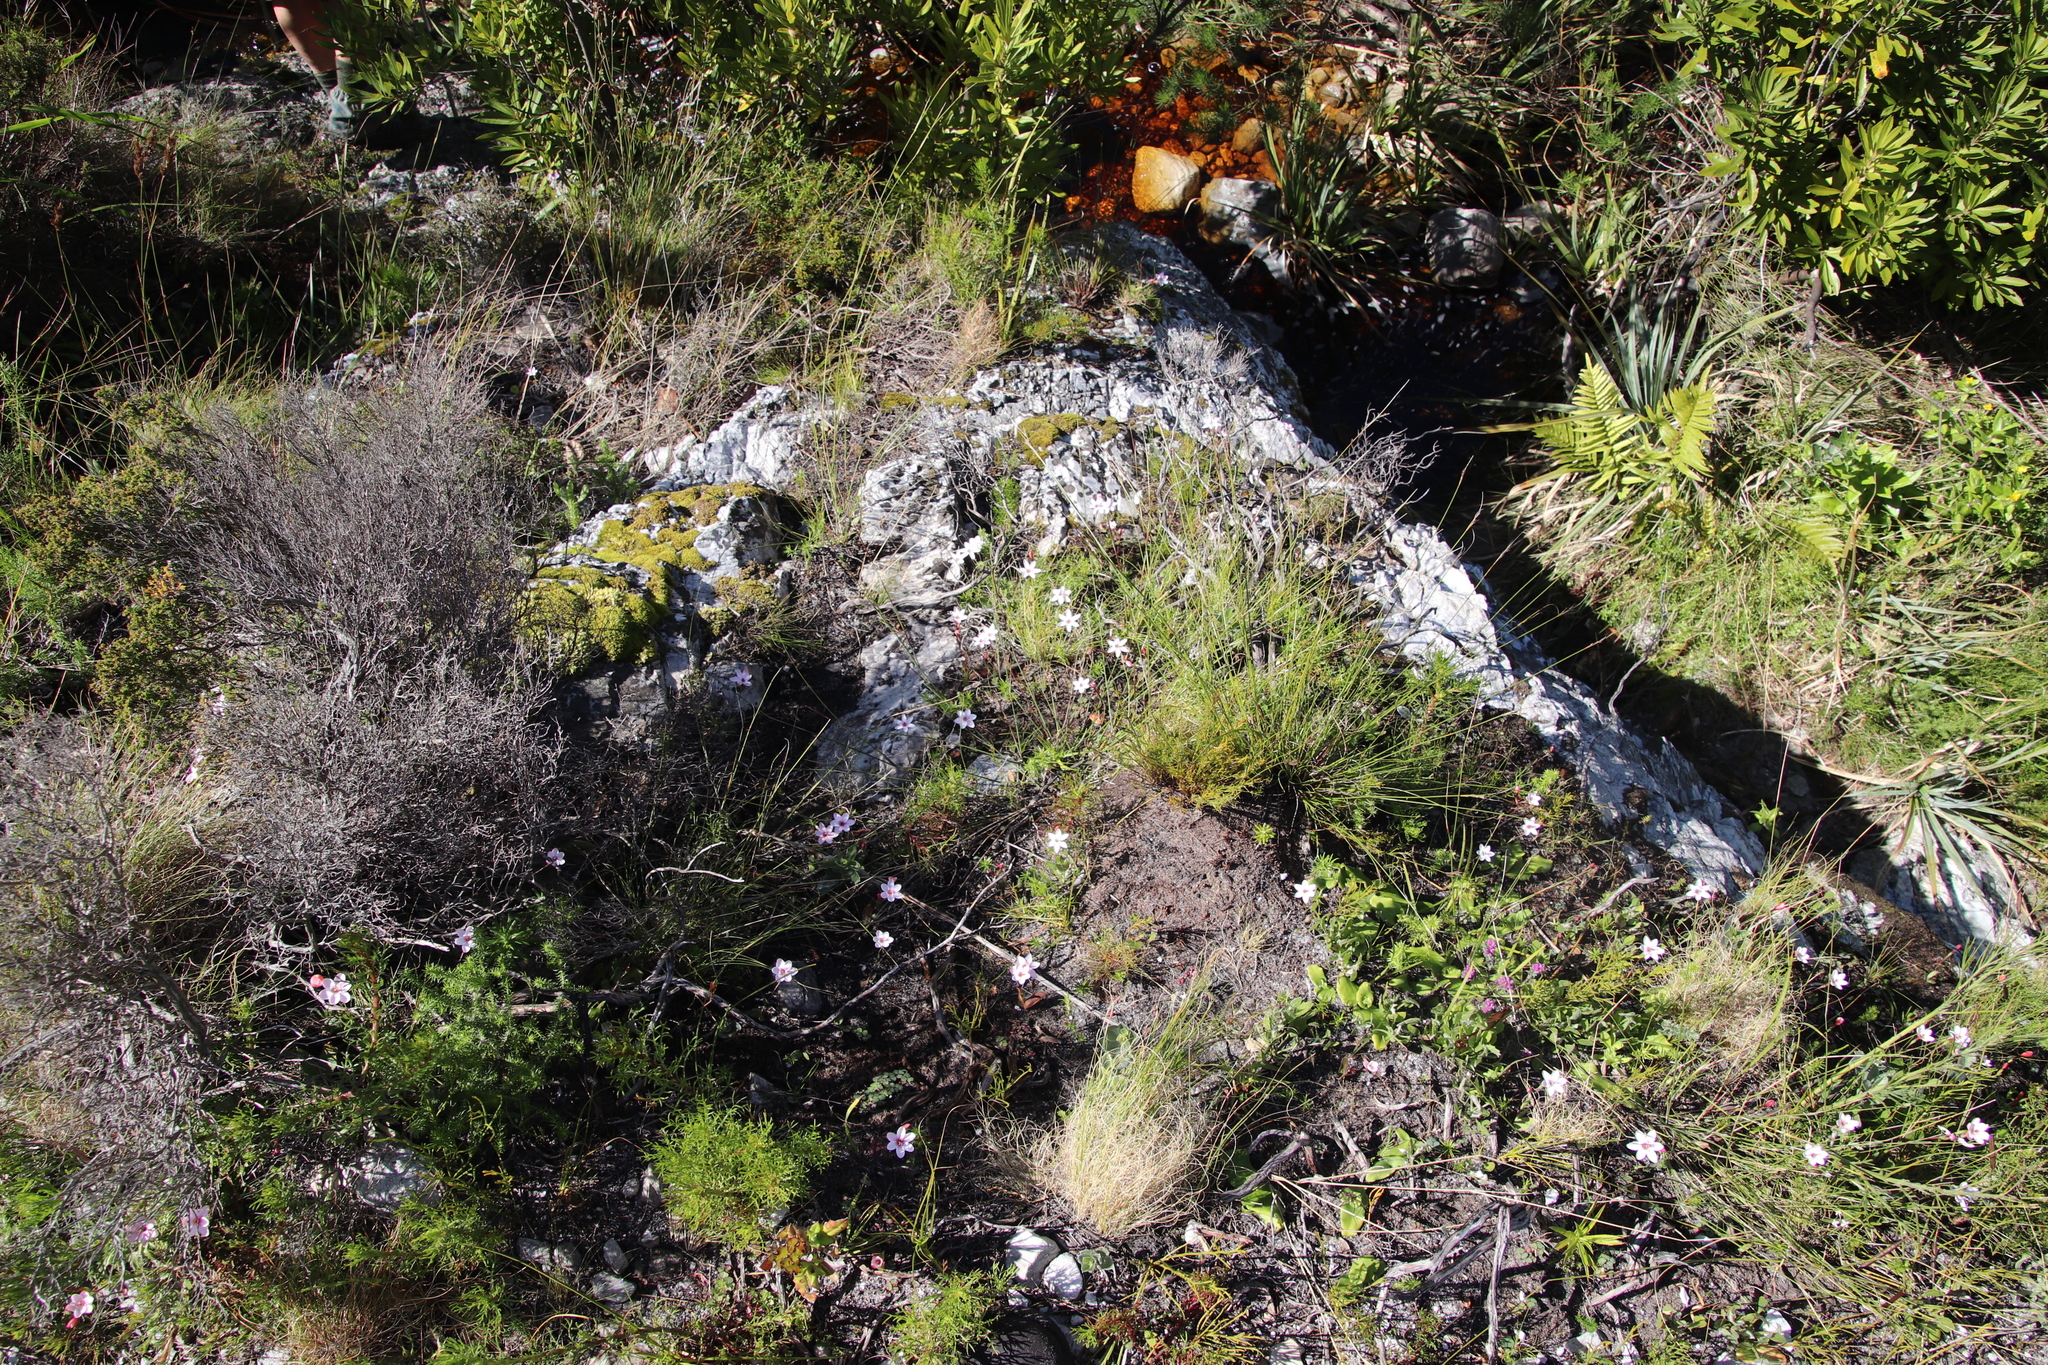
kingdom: Plantae
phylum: Tracheophyta
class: Liliopsida
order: Asparagales
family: Iridaceae
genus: Geissorhiza
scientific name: Geissorhiza ovata
